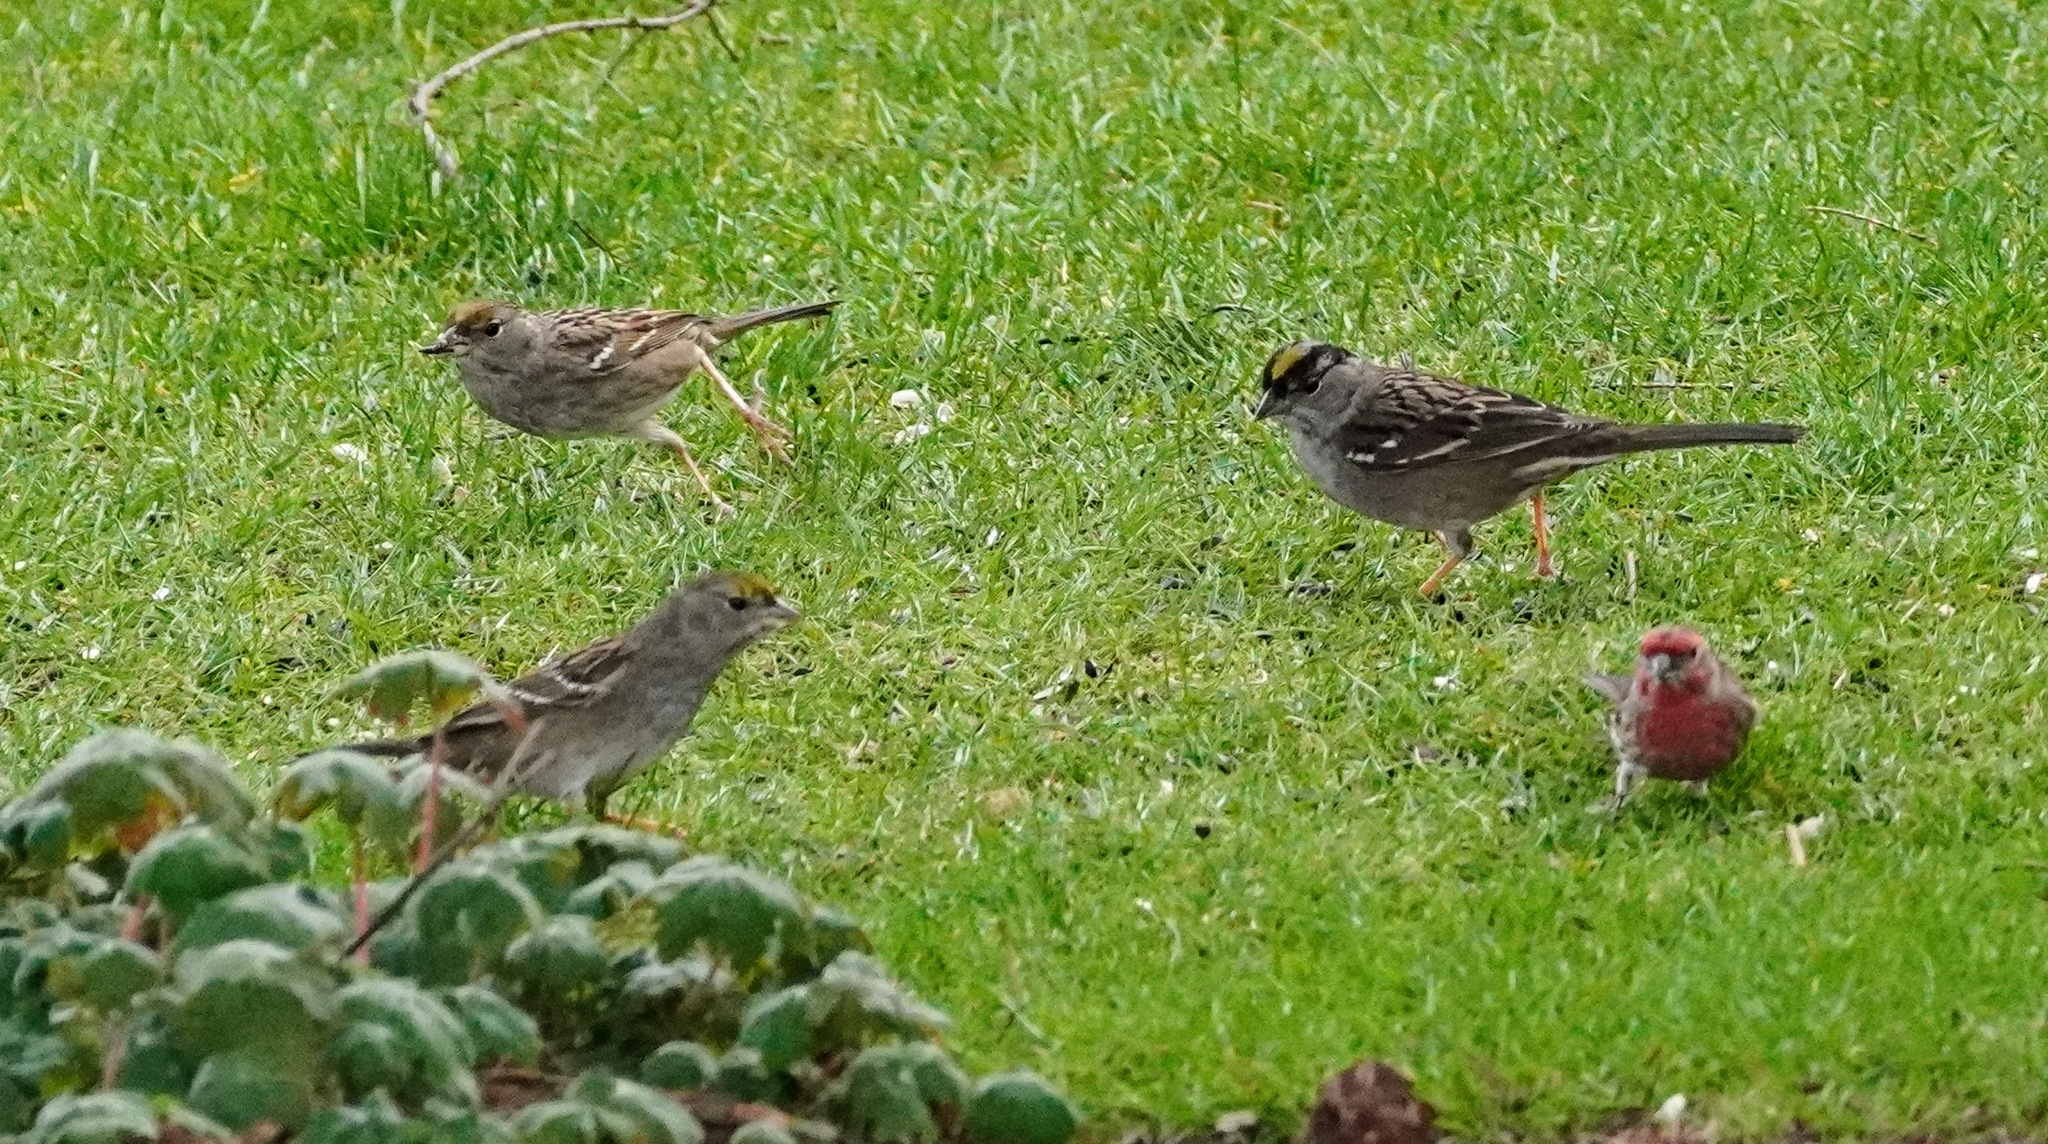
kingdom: Animalia
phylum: Chordata
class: Aves
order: Passeriformes
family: Passerellidae
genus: Zonotrichia
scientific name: Zonotrichia atricapilla
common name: Golden-crowned sparrow
